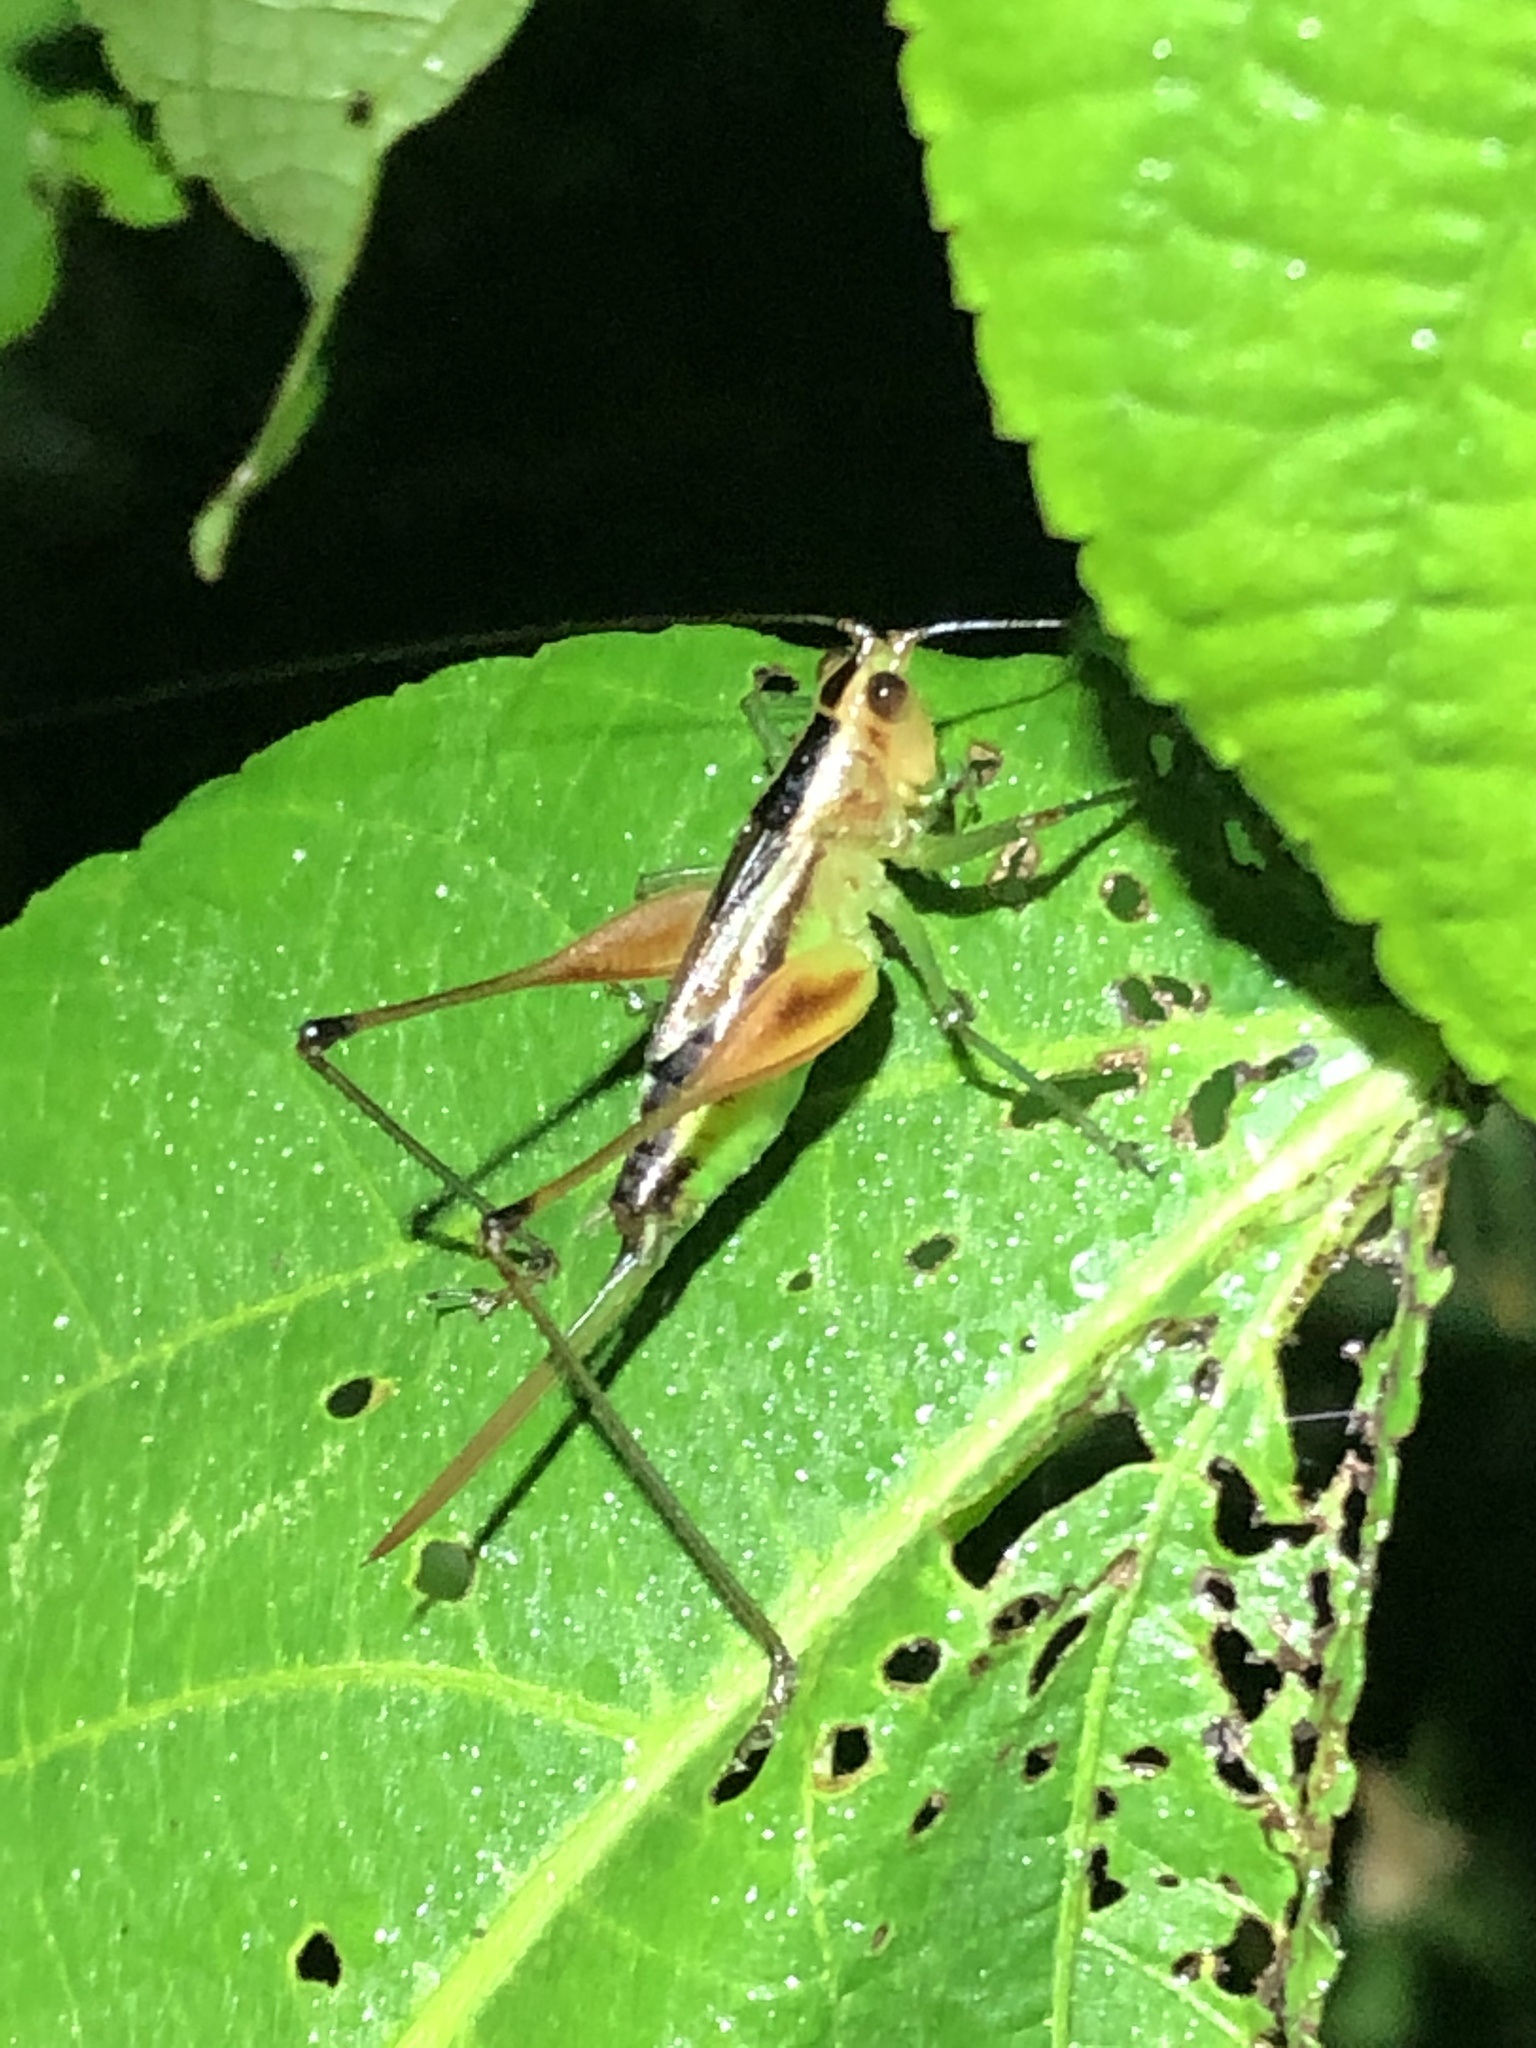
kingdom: Animalia
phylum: Arthropoda
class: Insecta
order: Orthoptera
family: Tettigoniidae
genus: Conocephalus
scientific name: Conocephalus versicolor
